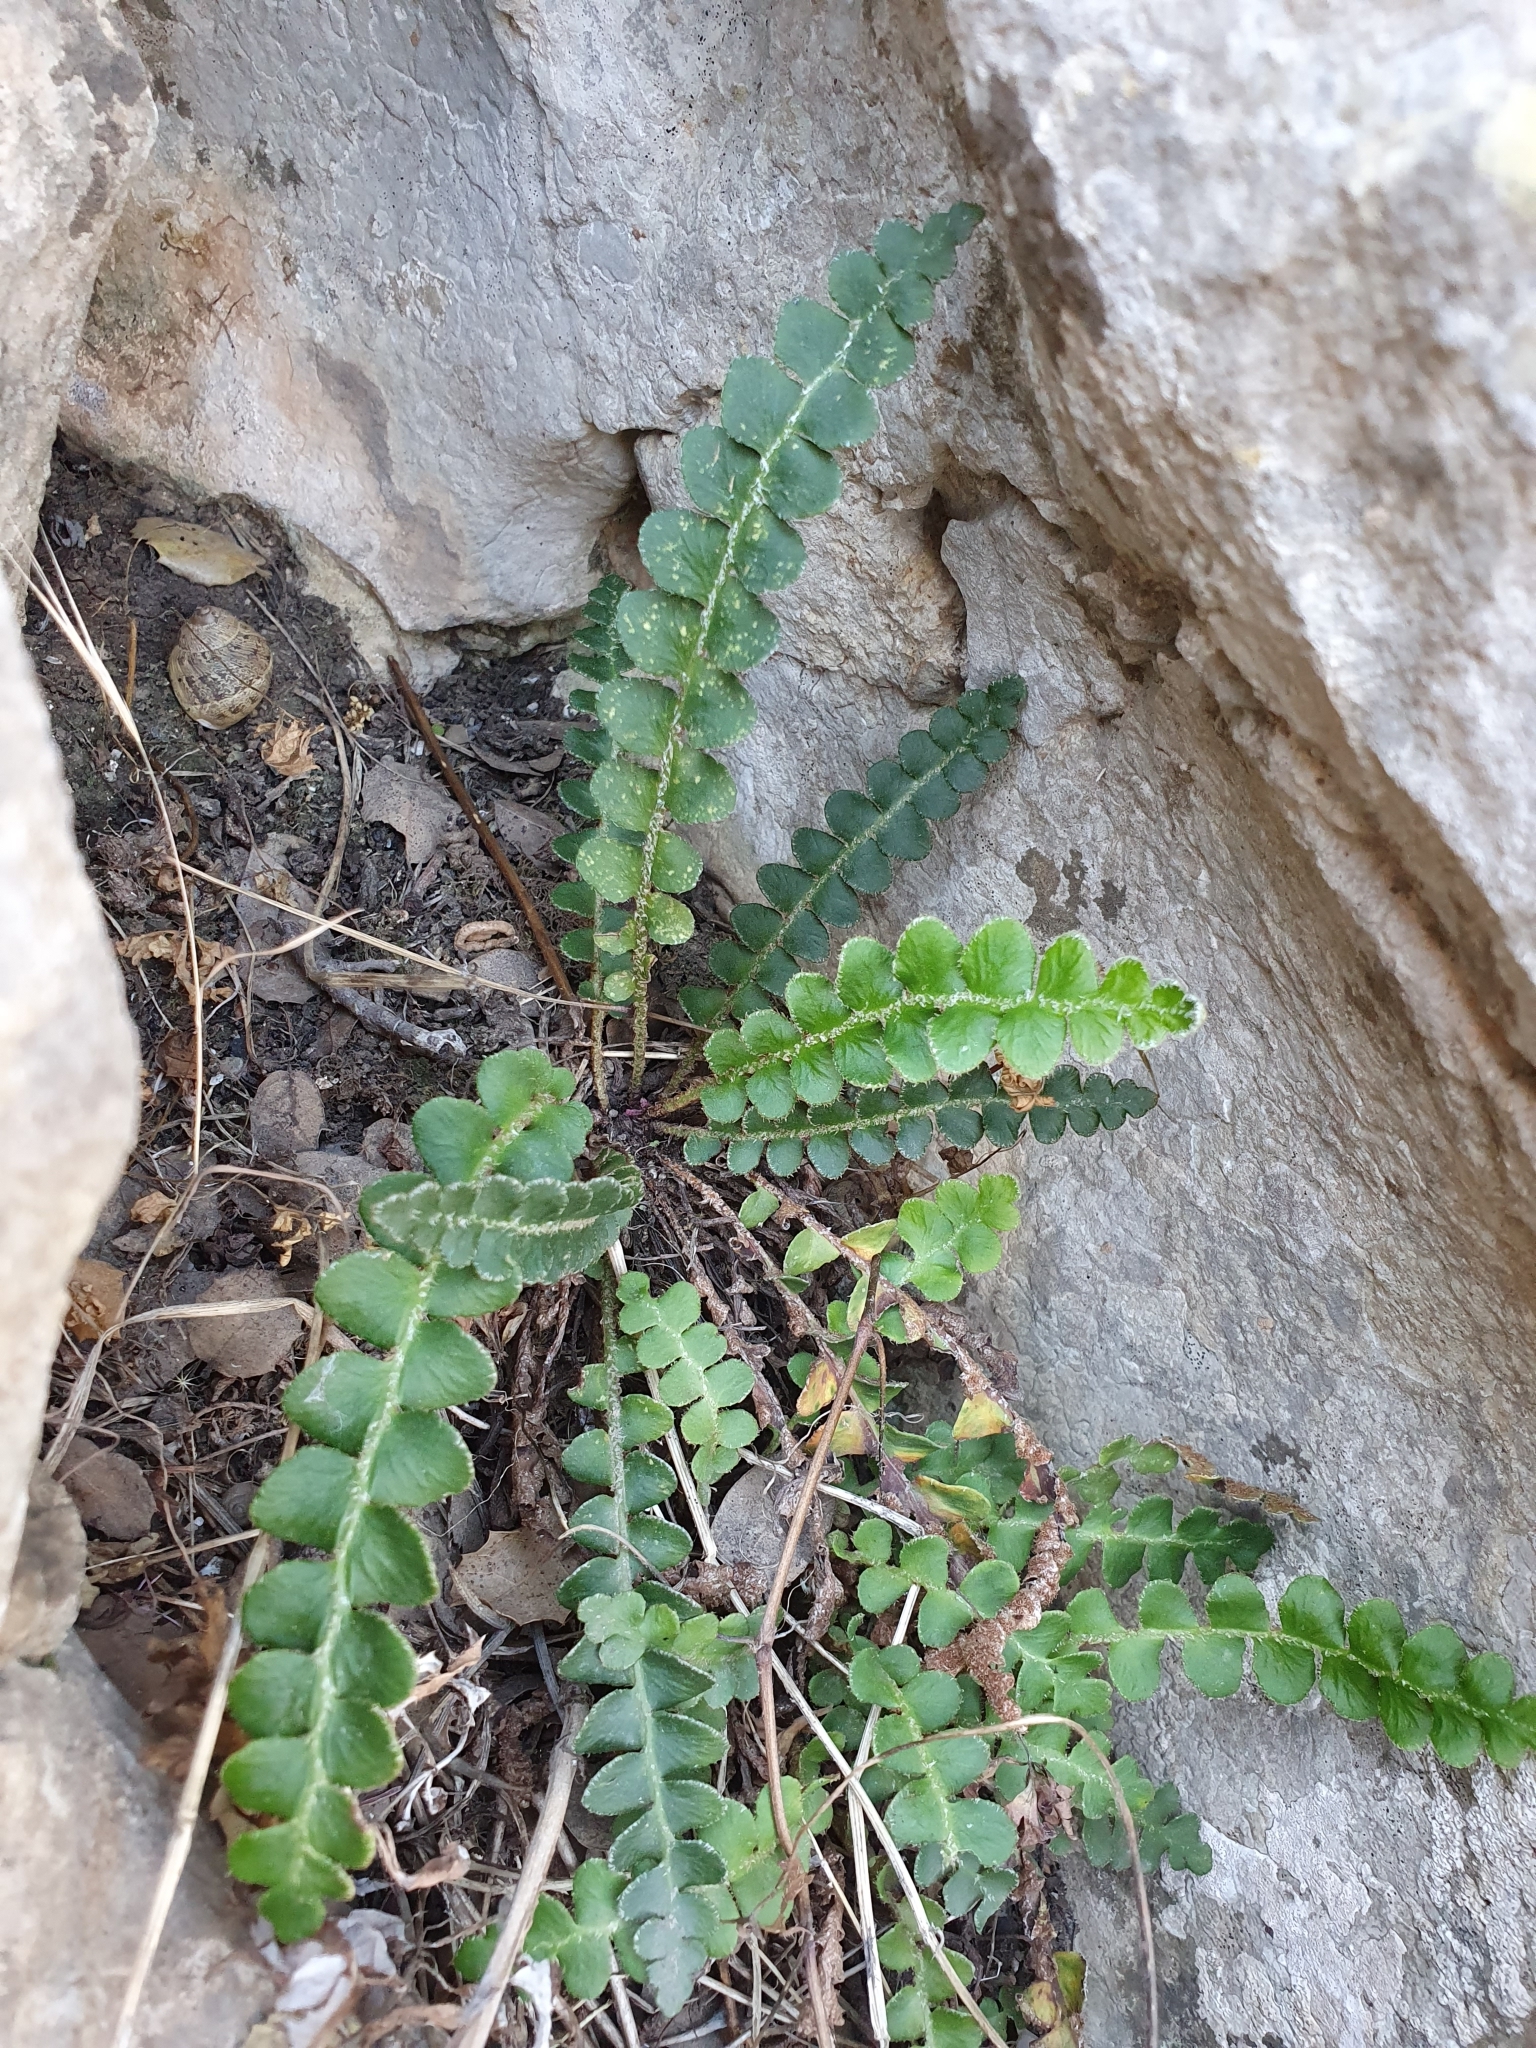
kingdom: Plantae
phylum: Tracheophyta
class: Polypodiopsida
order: Polypodiales
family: Aspleniaceae
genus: Asplenium
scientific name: Asplenium ceterach
